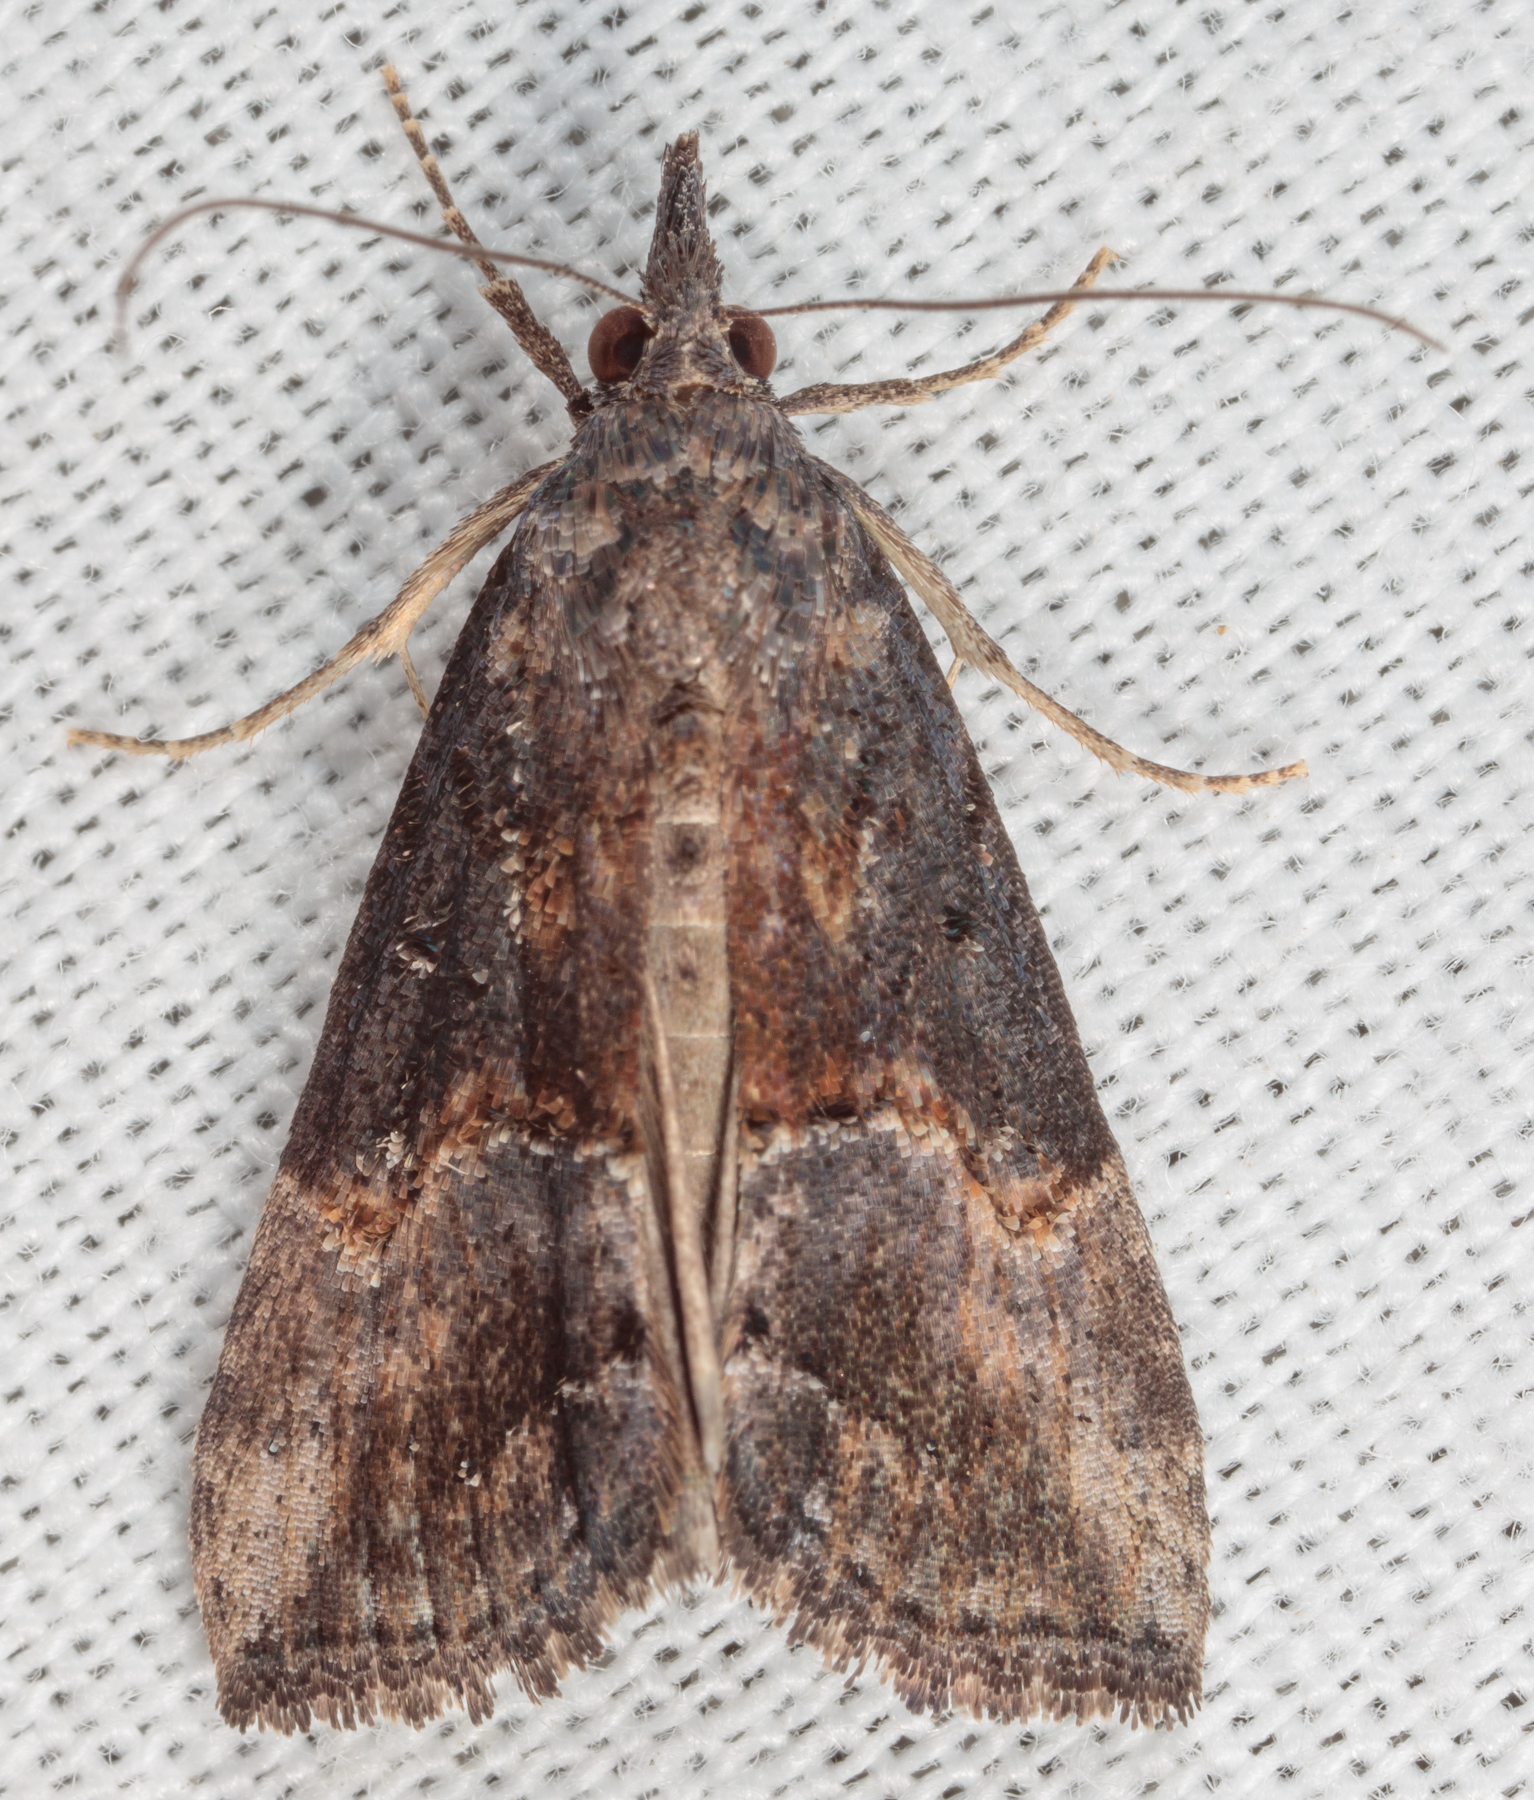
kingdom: Animalia
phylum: Arthropoda
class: Insecta
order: Lepidoptera
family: Erebidae
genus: Hypena
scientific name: Hypena scabra
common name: Green cloverworm
